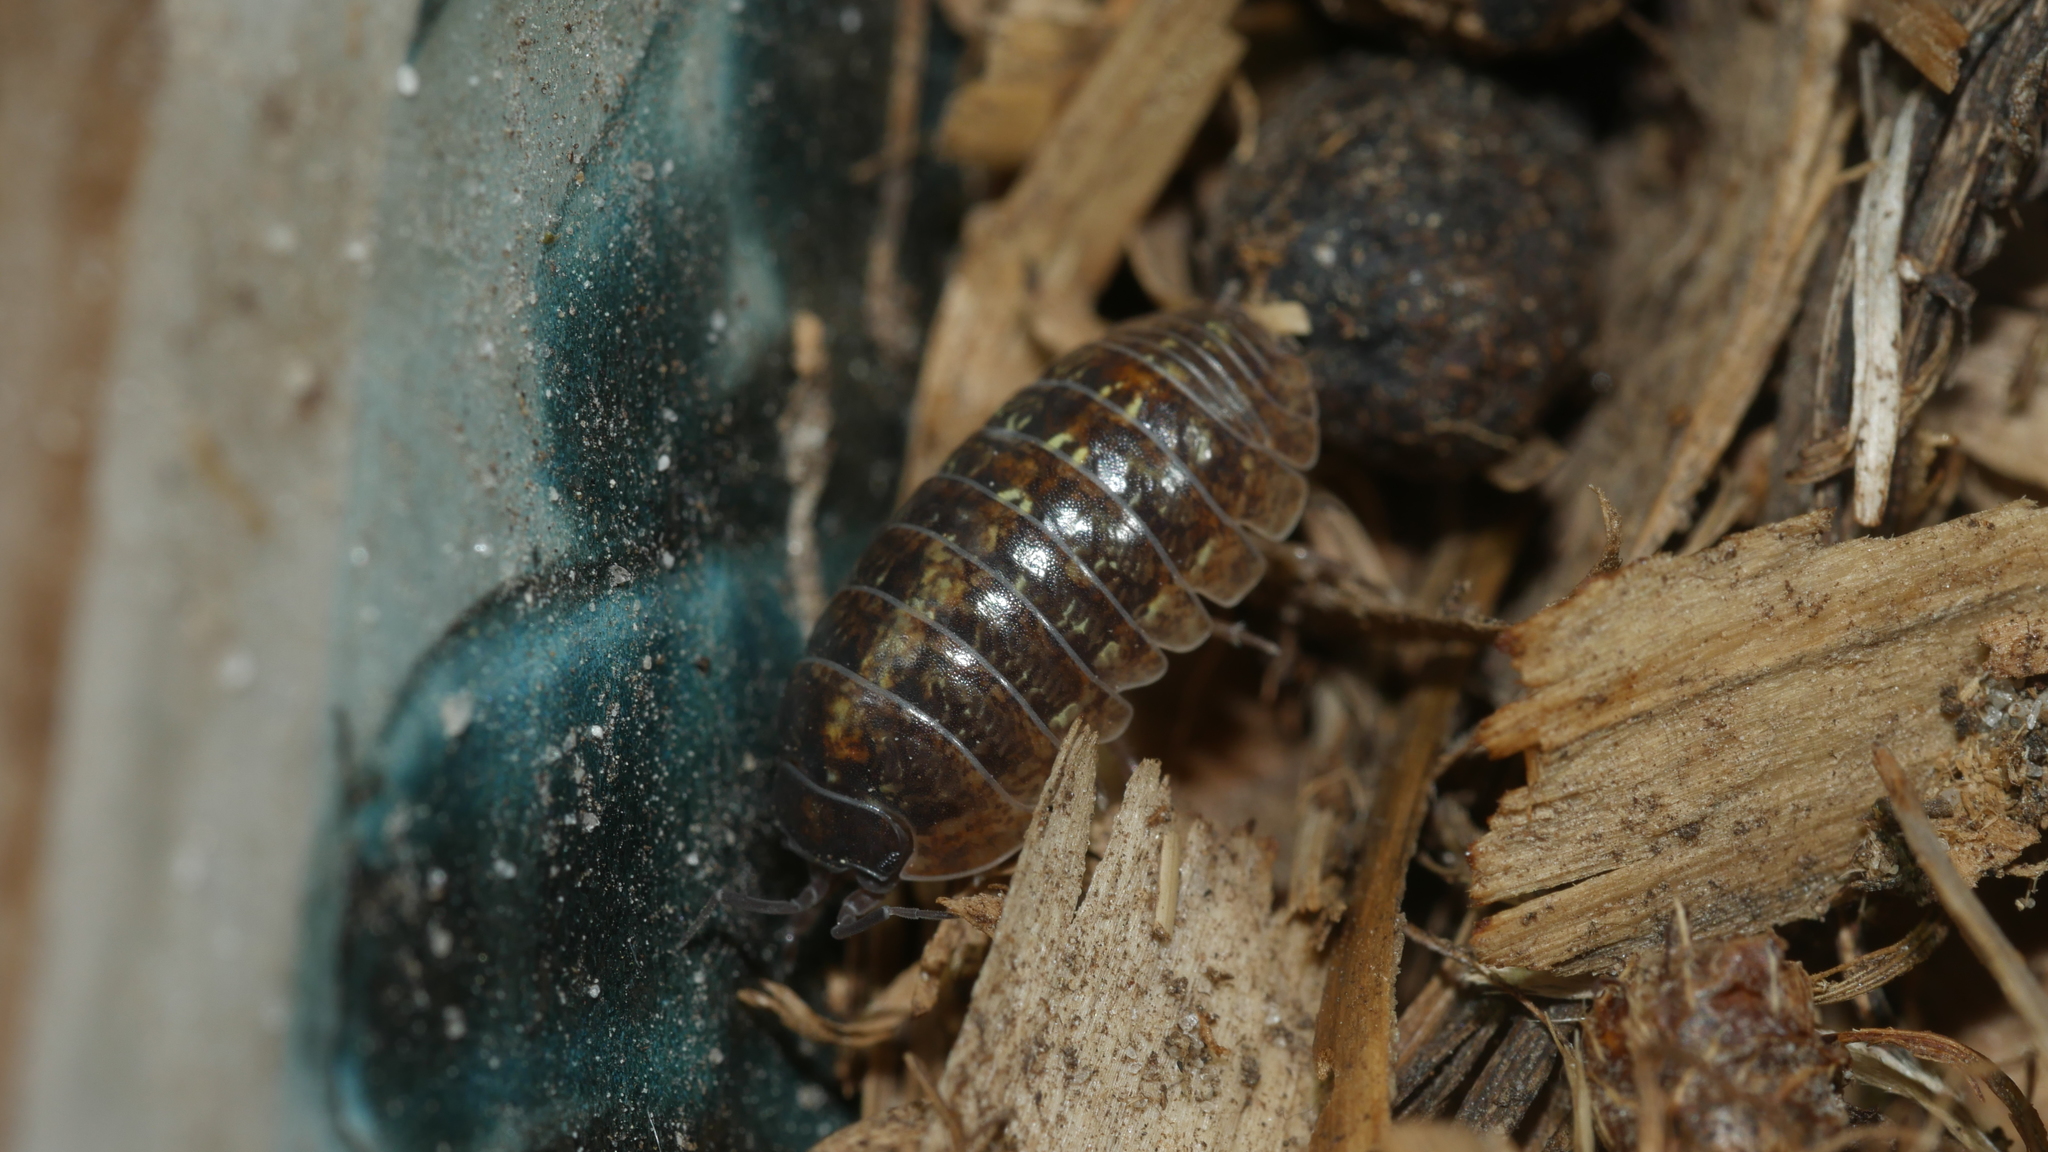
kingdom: Animalia
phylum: Arthropoda
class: Malacostraca
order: Isopoda
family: Armadillidiidae
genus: Armadillidium
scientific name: Armadillidium vulgare
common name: Common pill woodlouse
